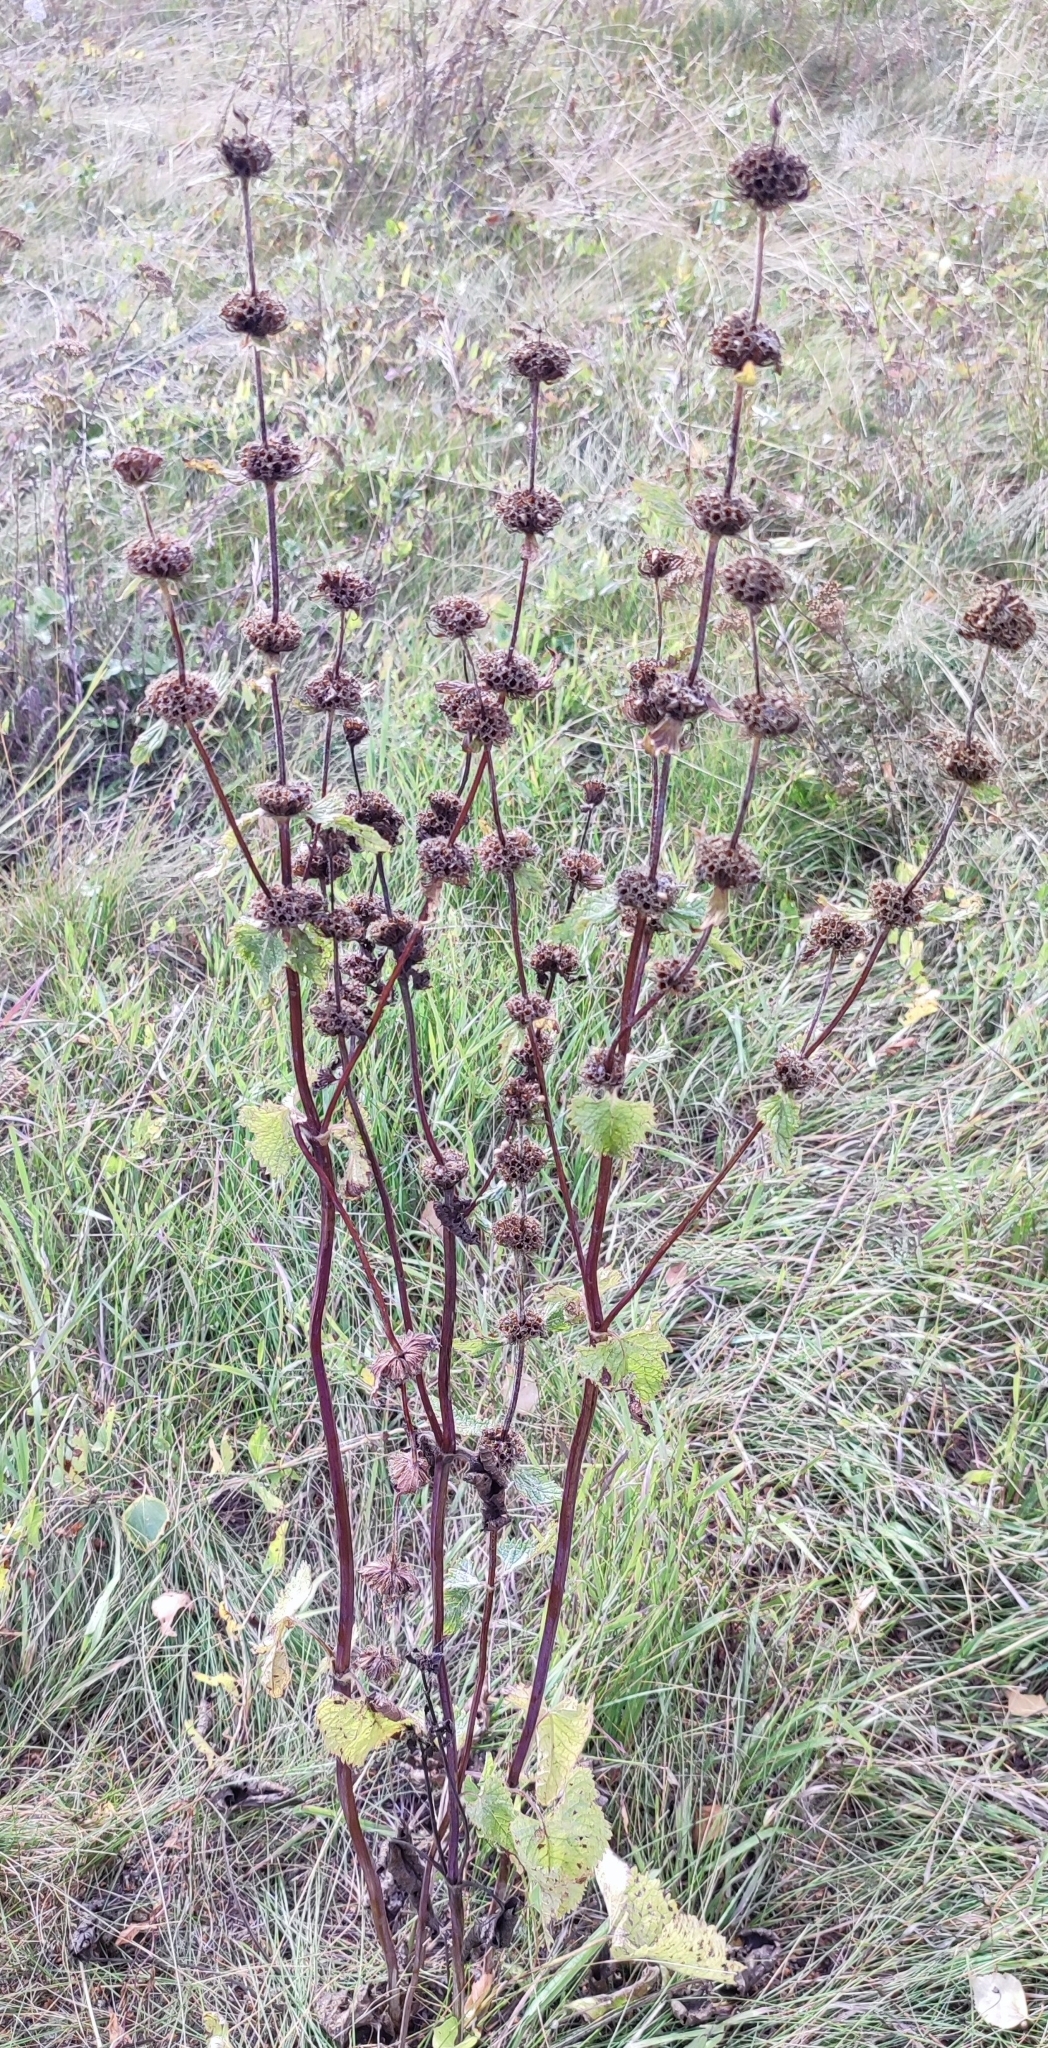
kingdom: Plantae
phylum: Tracheophyta
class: Magnoliopsida
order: Lamiales
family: Lamiaceae
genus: Phlomoides
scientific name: Phlomoides tuberosa
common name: Tuberous jerusalem sage
